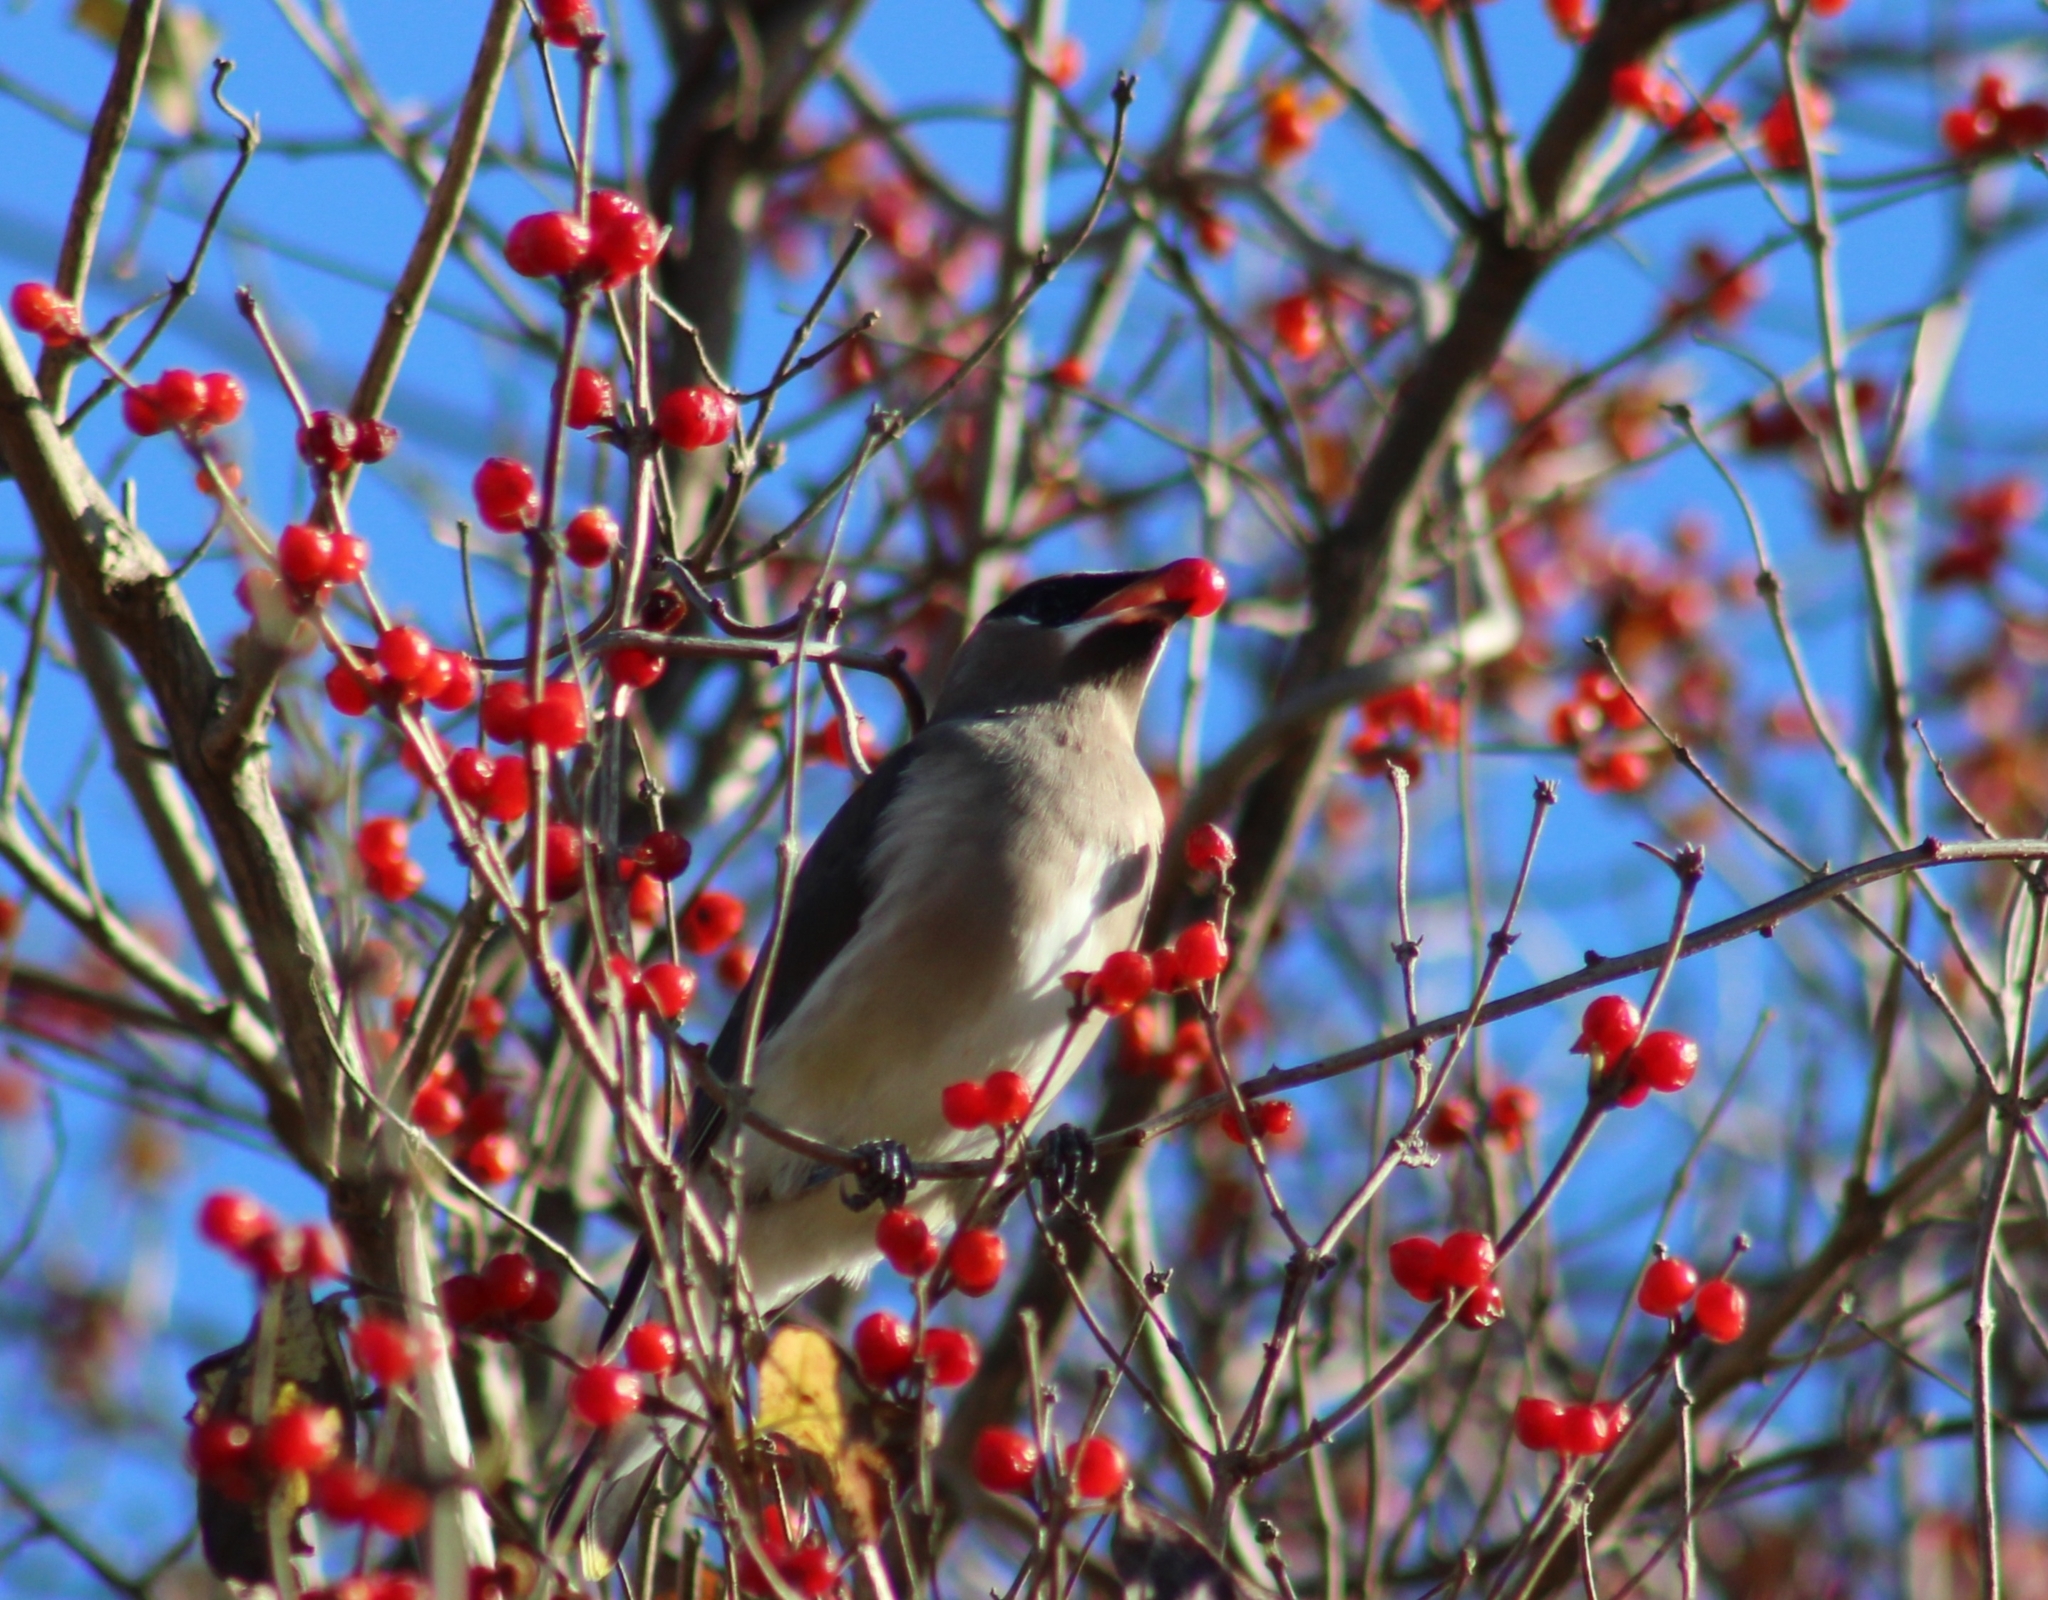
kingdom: Animalia
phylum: Chordata
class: Aves
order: Passeriformes
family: Bombycillidae
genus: Bombycilla
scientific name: Bombycilla cedrorum
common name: Cedar waxwing
